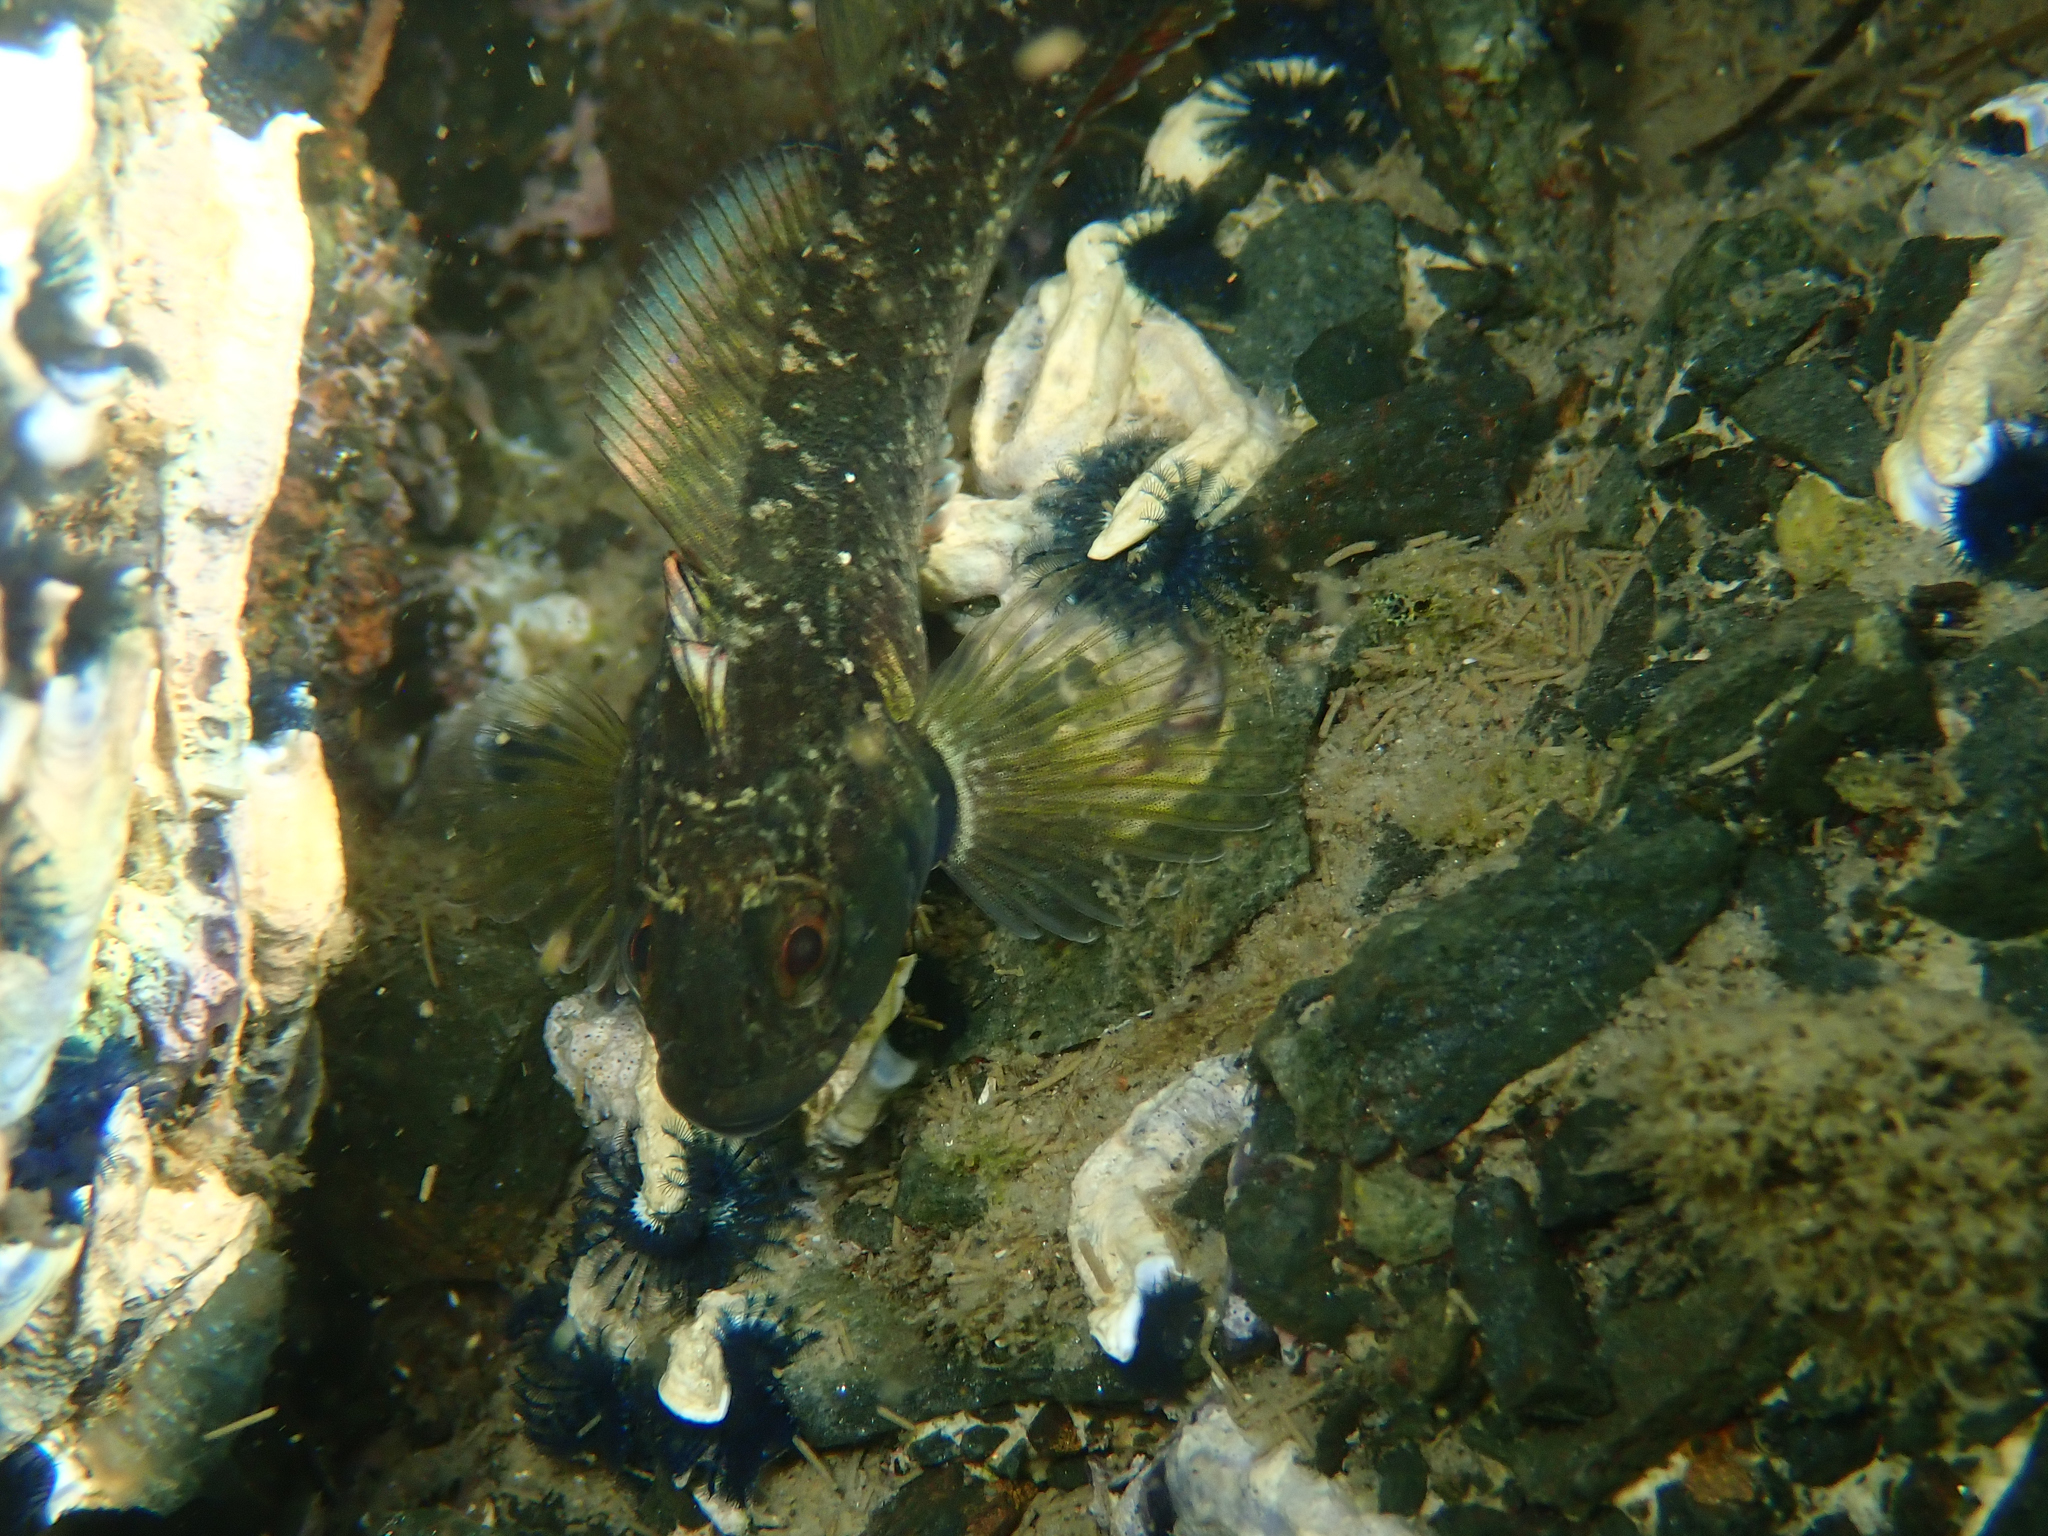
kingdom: Animalia
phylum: Chordata
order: Perciformes
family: Tripterygiidae
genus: Forsterygion
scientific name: Forsterygion capito
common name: Spotted robust triplefin
